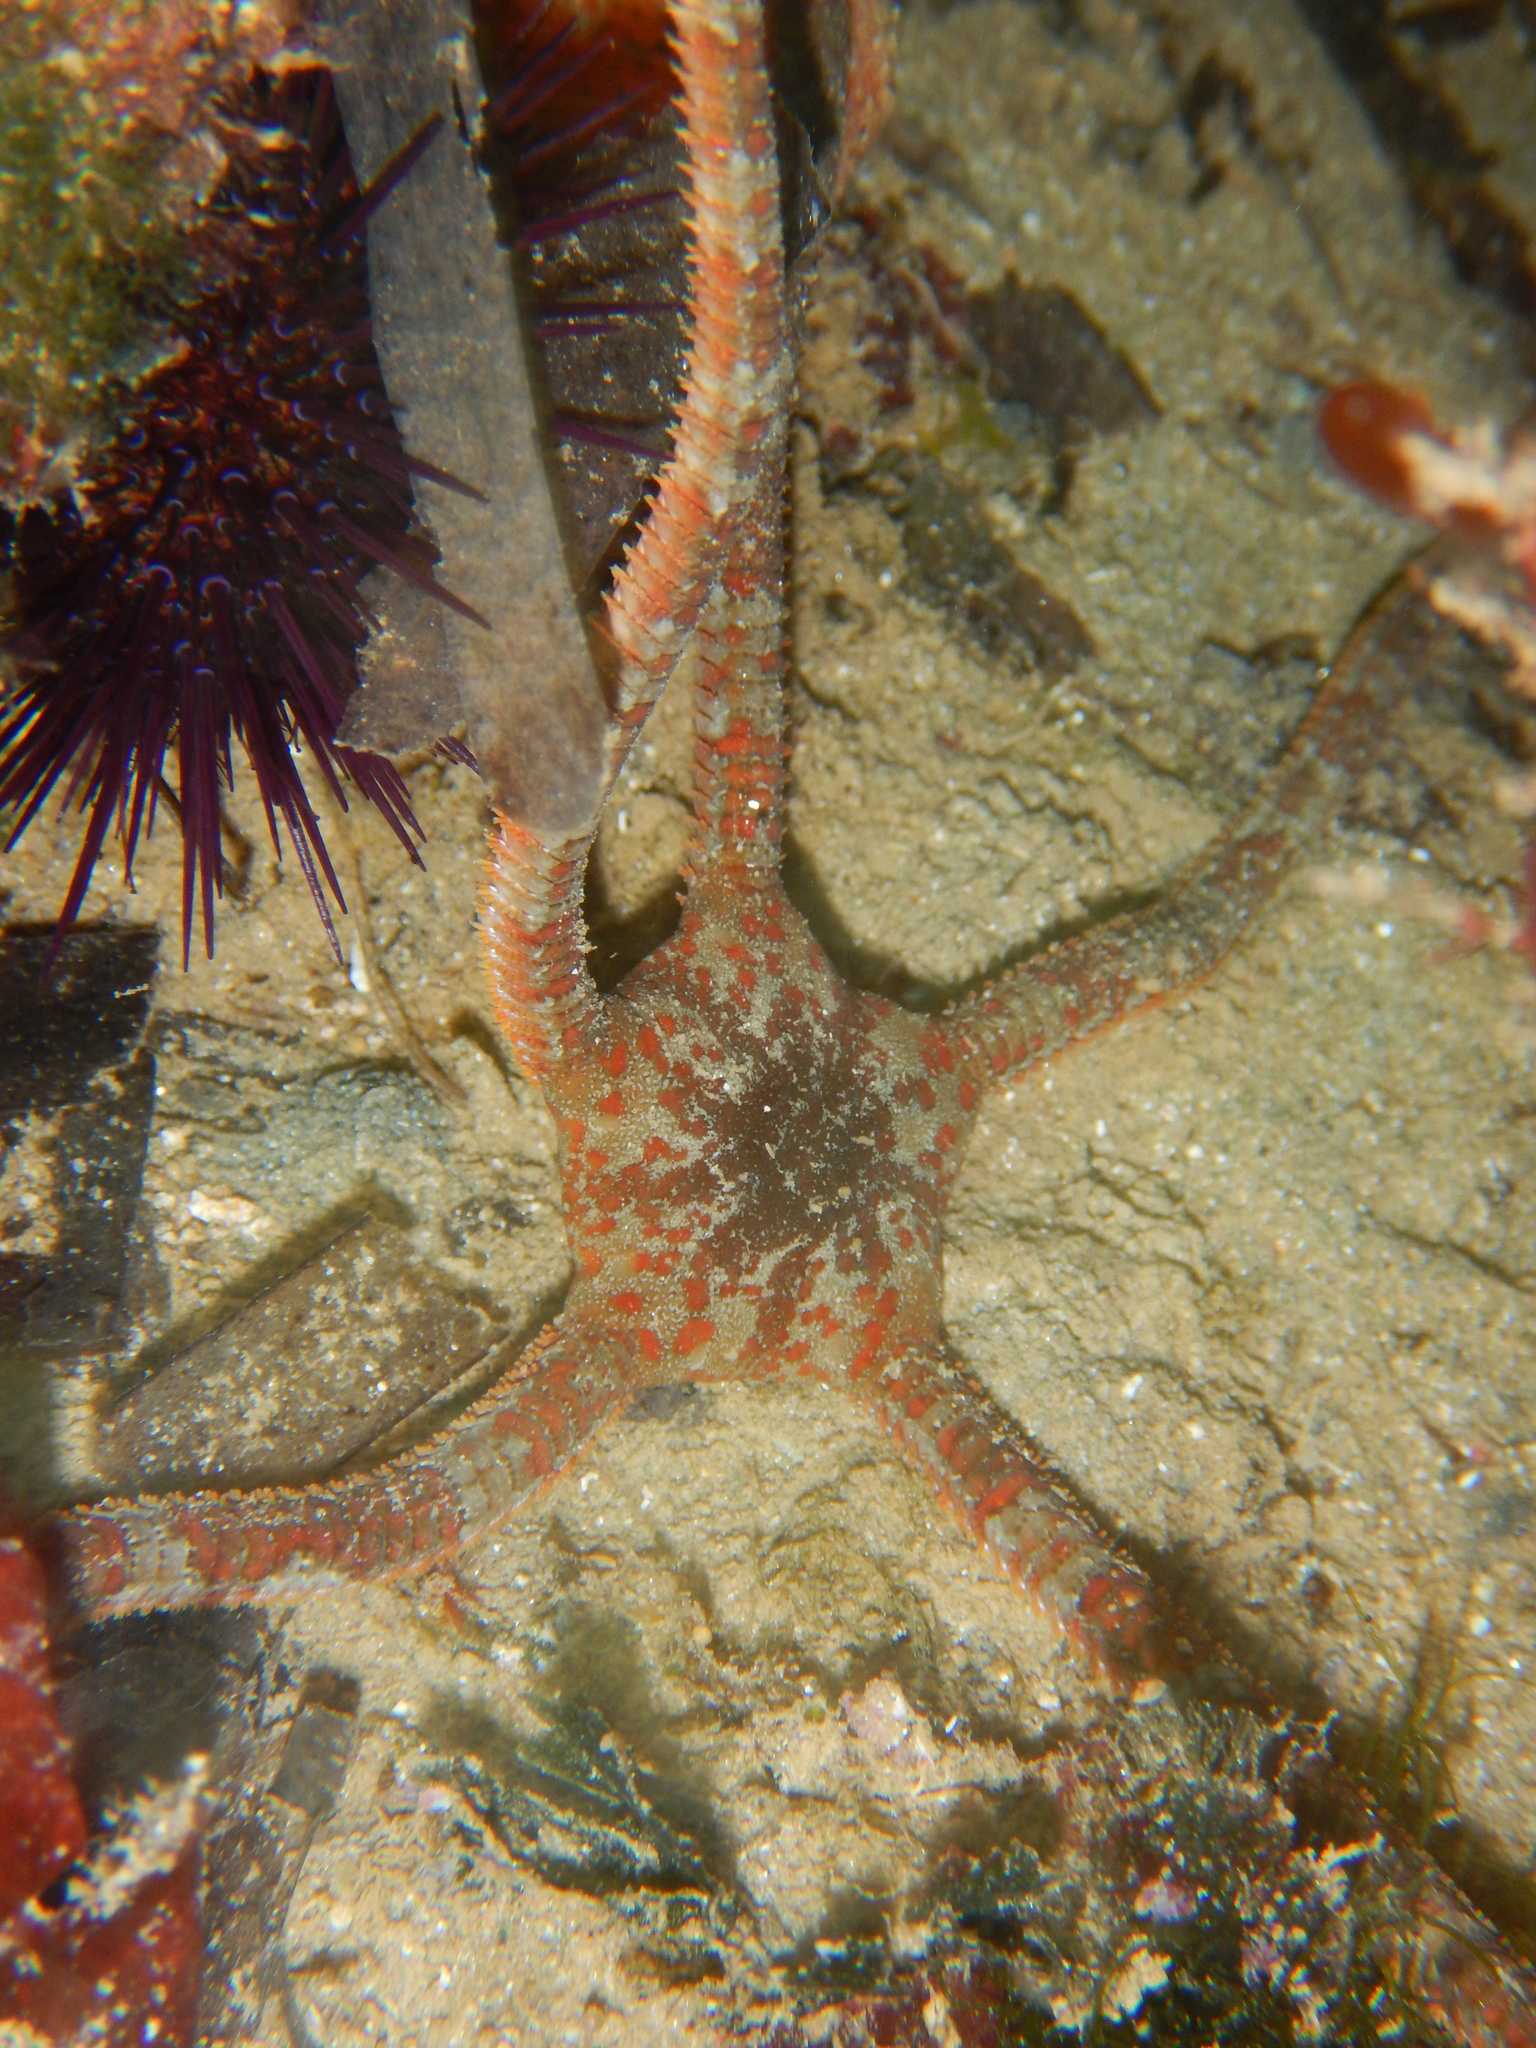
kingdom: Animalia
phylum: Echinodermata
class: Ophiuroidea
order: Ophiacanthida
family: Ophiodermatidae
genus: Ophioderma
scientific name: Ophioderma longicaudum
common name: Smooth brittle-star
